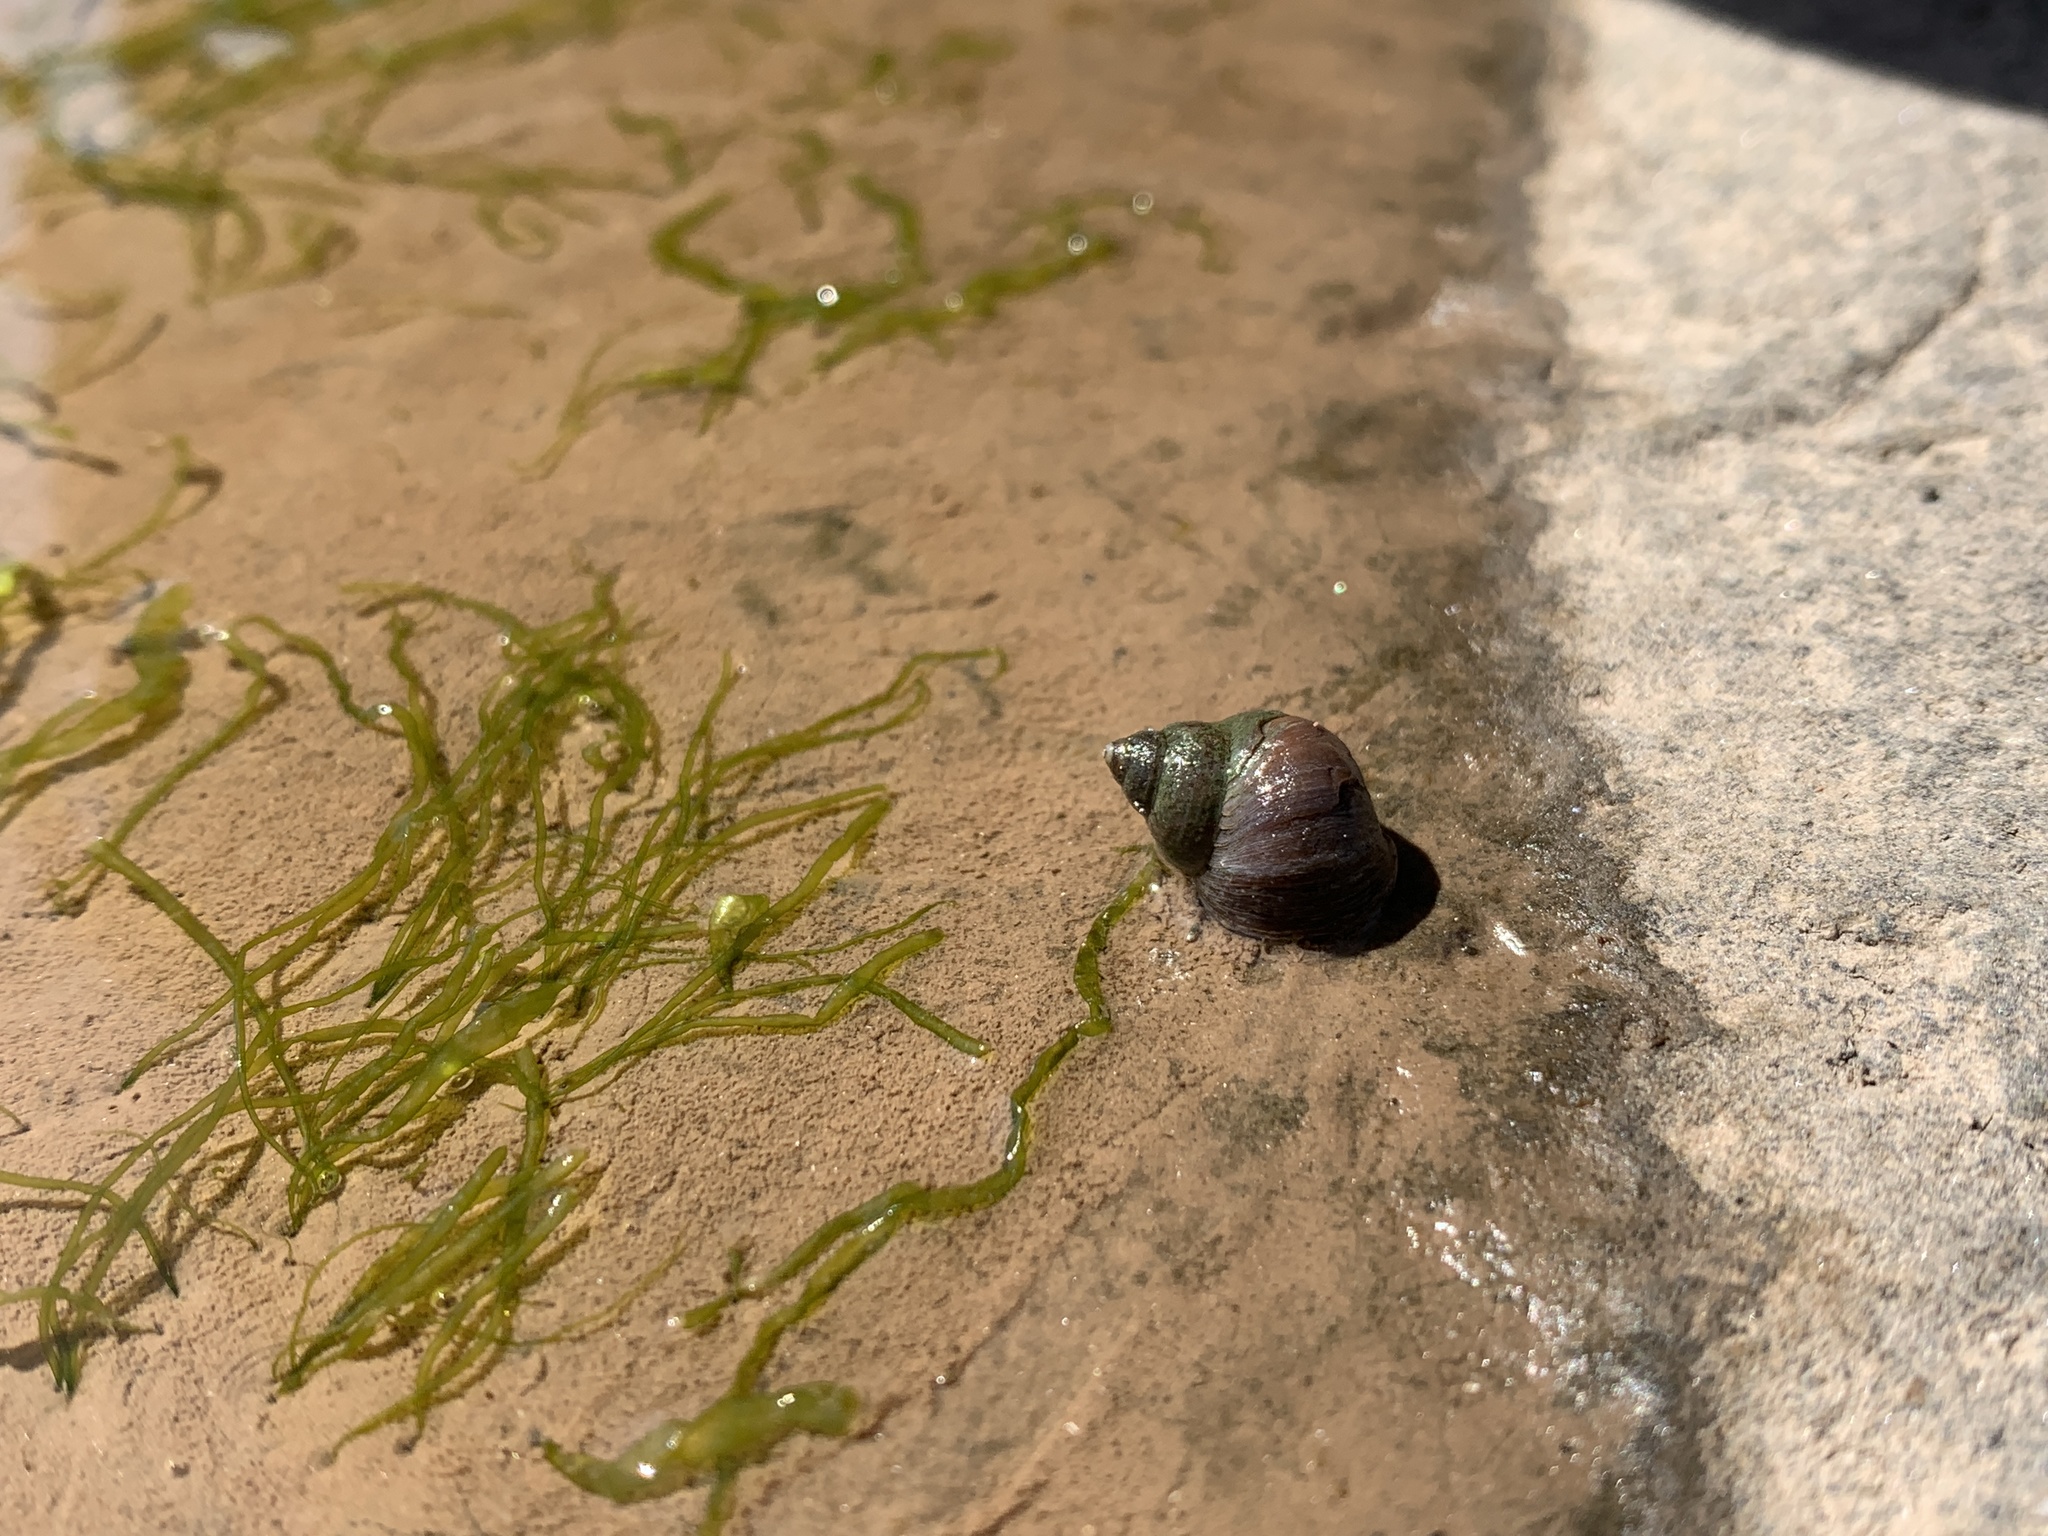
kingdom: Animalia
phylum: Mollusca
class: Gastropoda
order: Littorinimorpha
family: Littorinidae
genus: Littorina
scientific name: Littorina saxatilis
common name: Black-lined periwinkle
